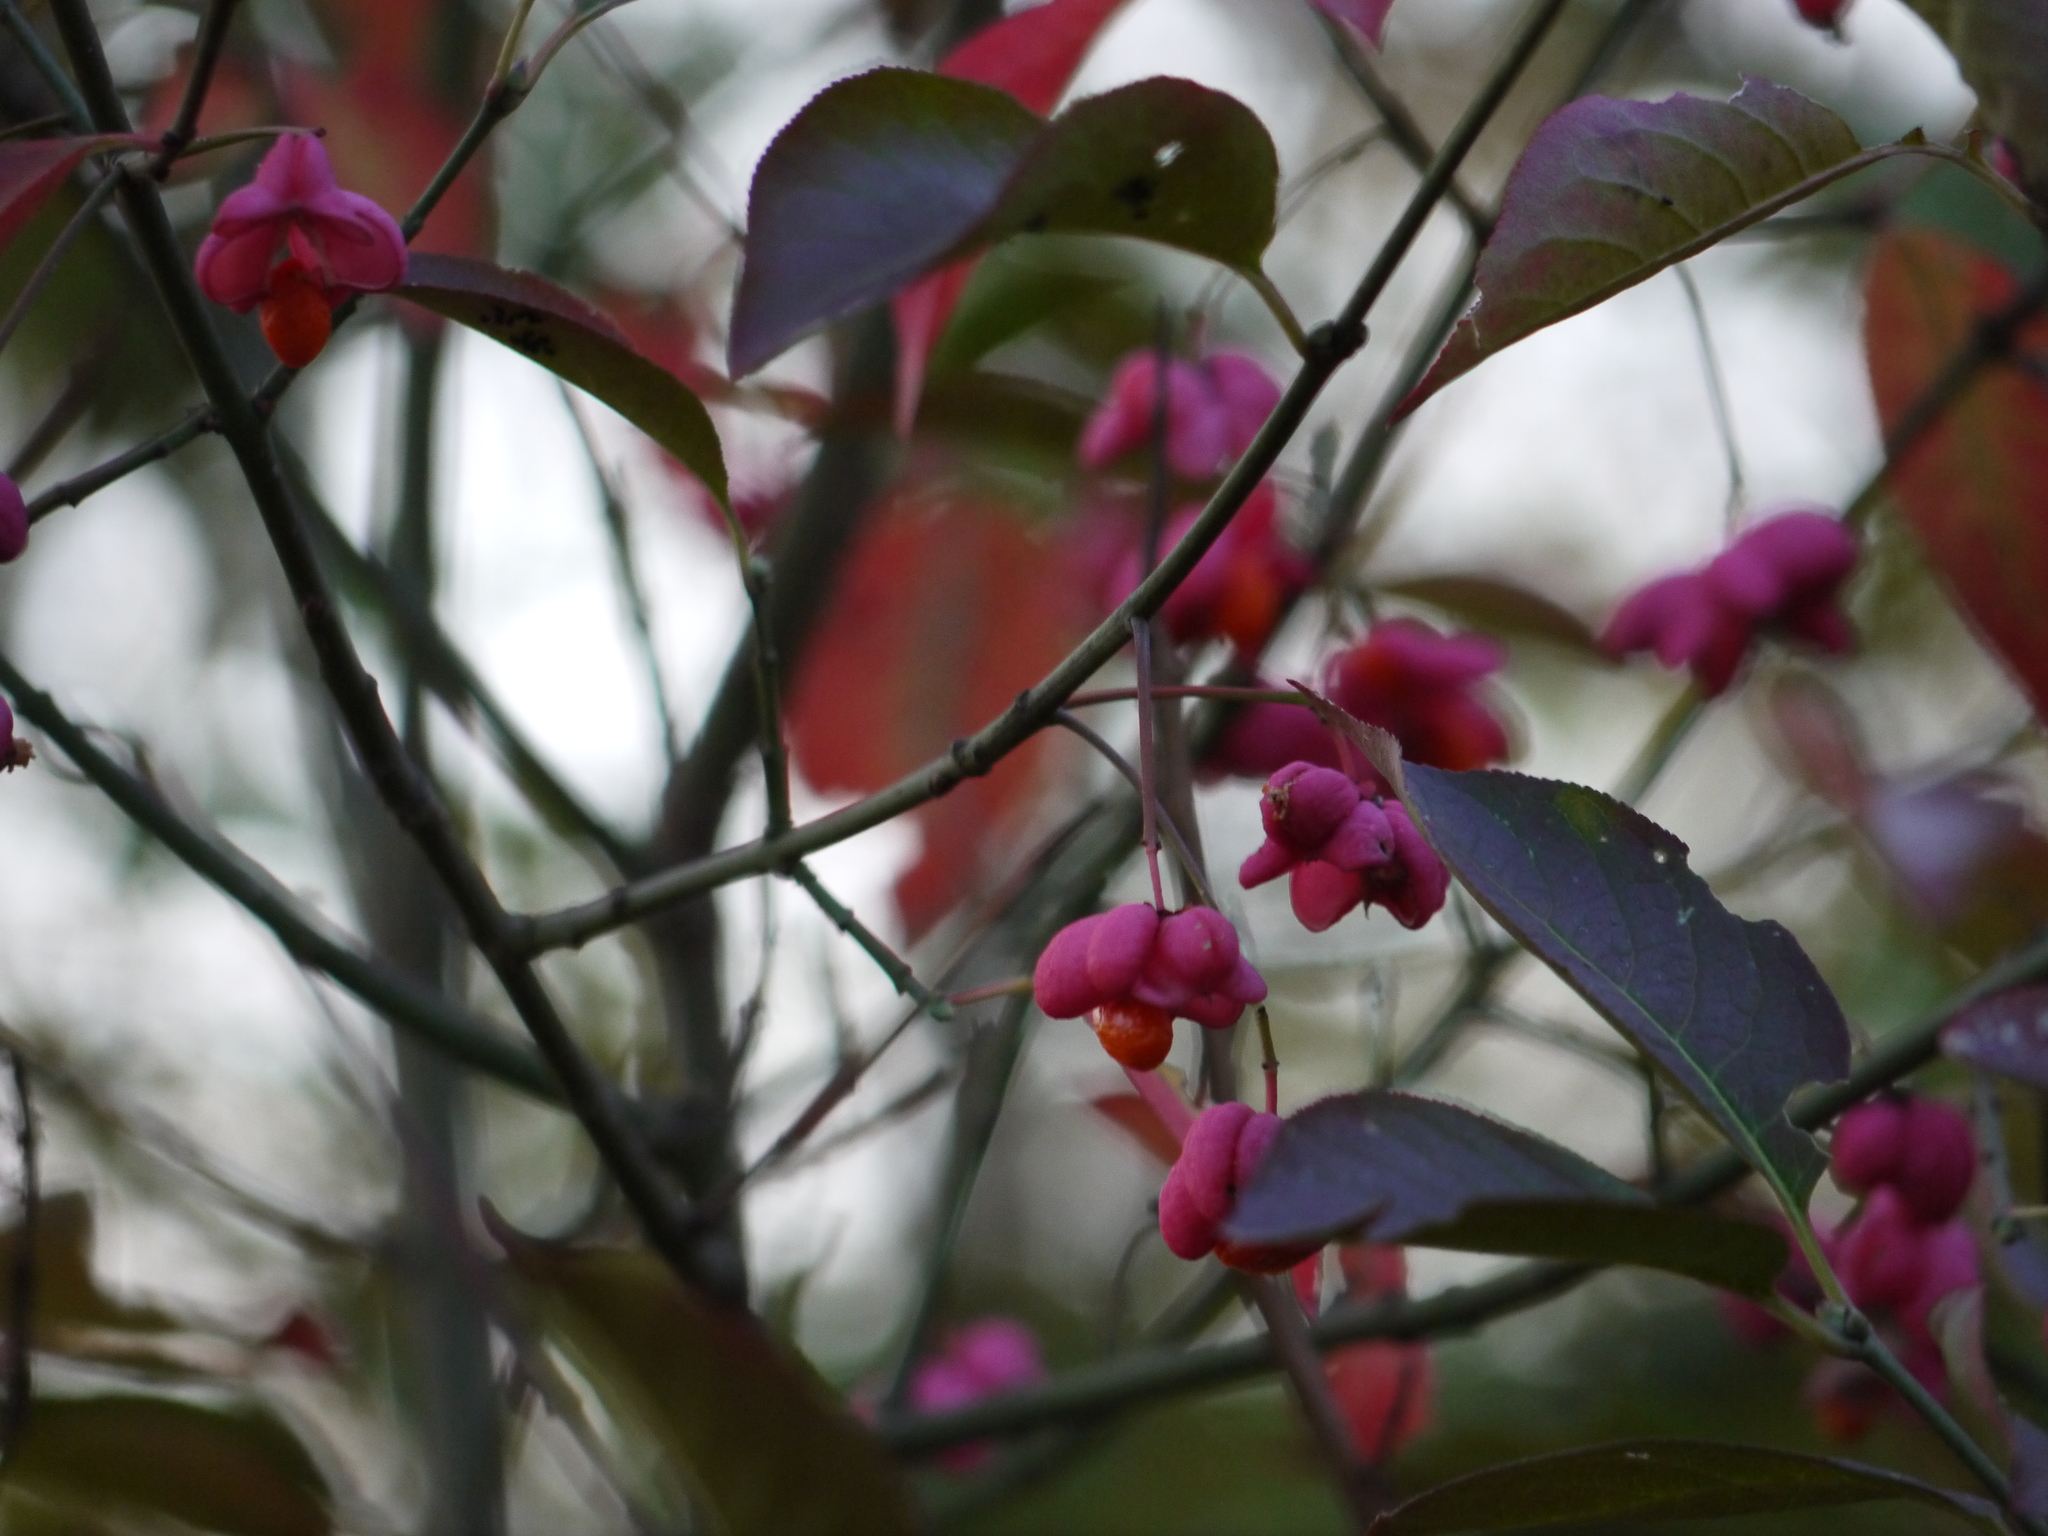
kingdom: Plantae
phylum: Tracheophyta
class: Magnoliopsida
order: Celastrales
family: Celastraceae
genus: Euonymus
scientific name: Euonymus europaeus
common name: Spindle
